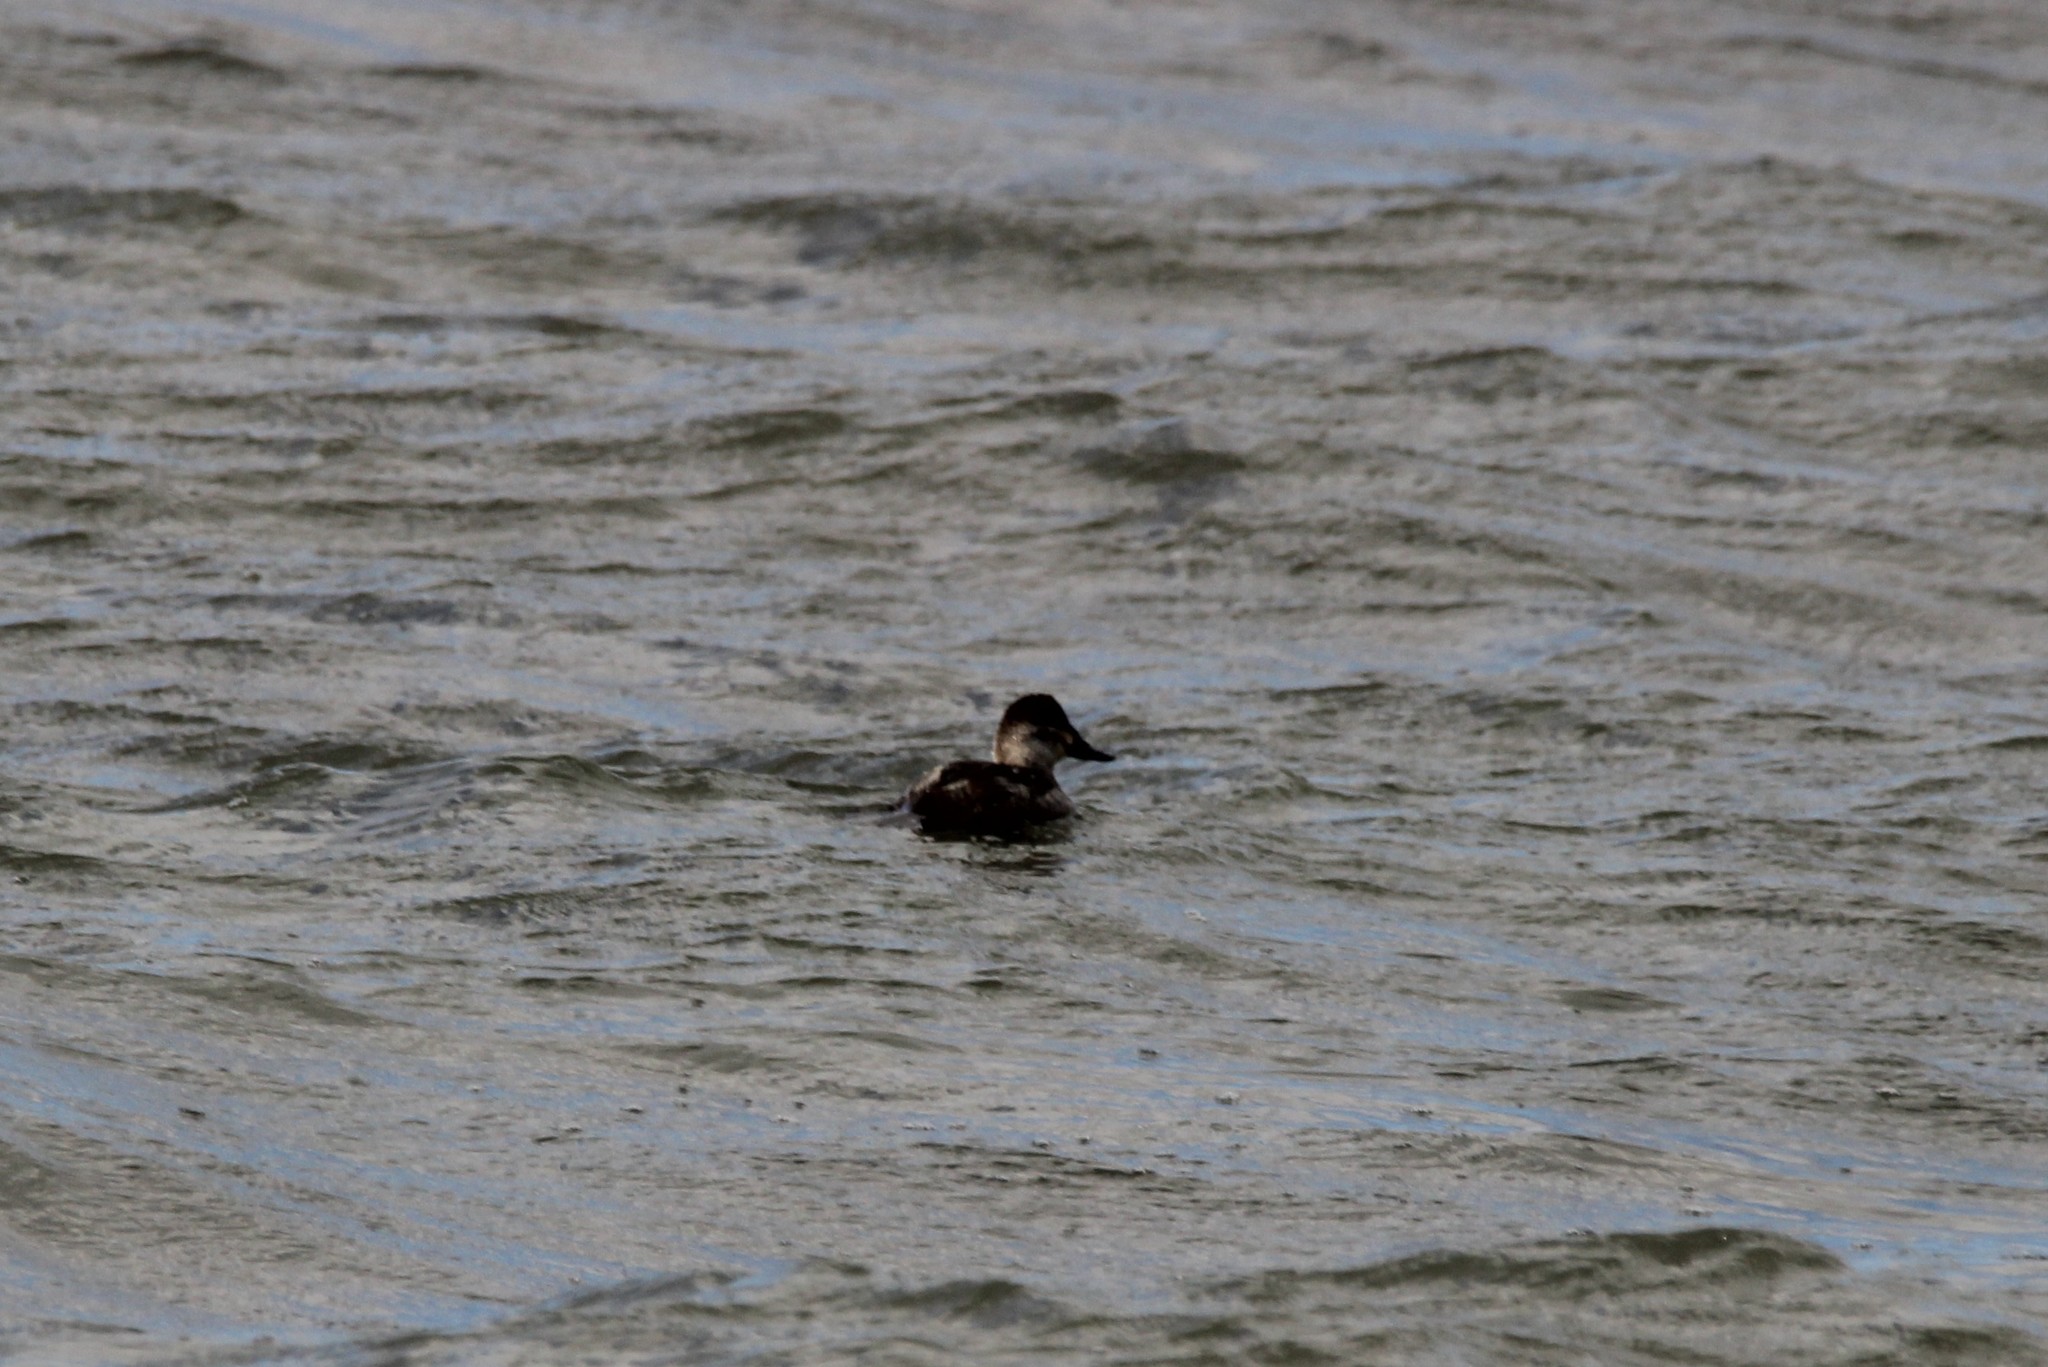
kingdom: Animalia
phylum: Chordata
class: Aves
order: Anseriformes
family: Anatidae
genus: Oxyura
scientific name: Oxyura jamaicensis
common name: Ruddy duck
